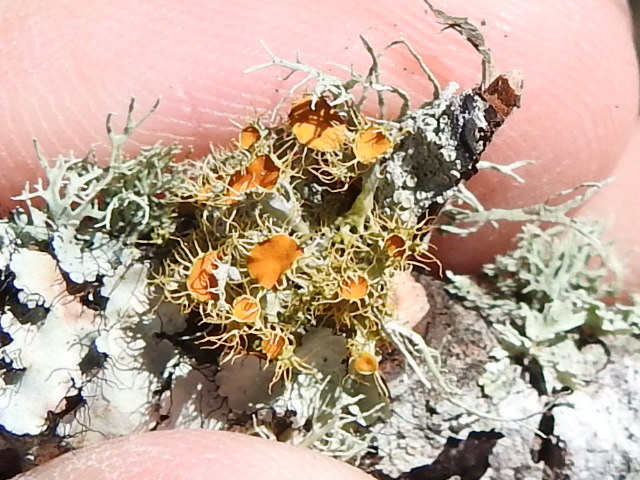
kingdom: Fungi
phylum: Ascomycota
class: Lecanoromycetes
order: Teloschistales
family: Teloschistaceae
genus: Niorma
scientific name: Niorma chrysophthalma
